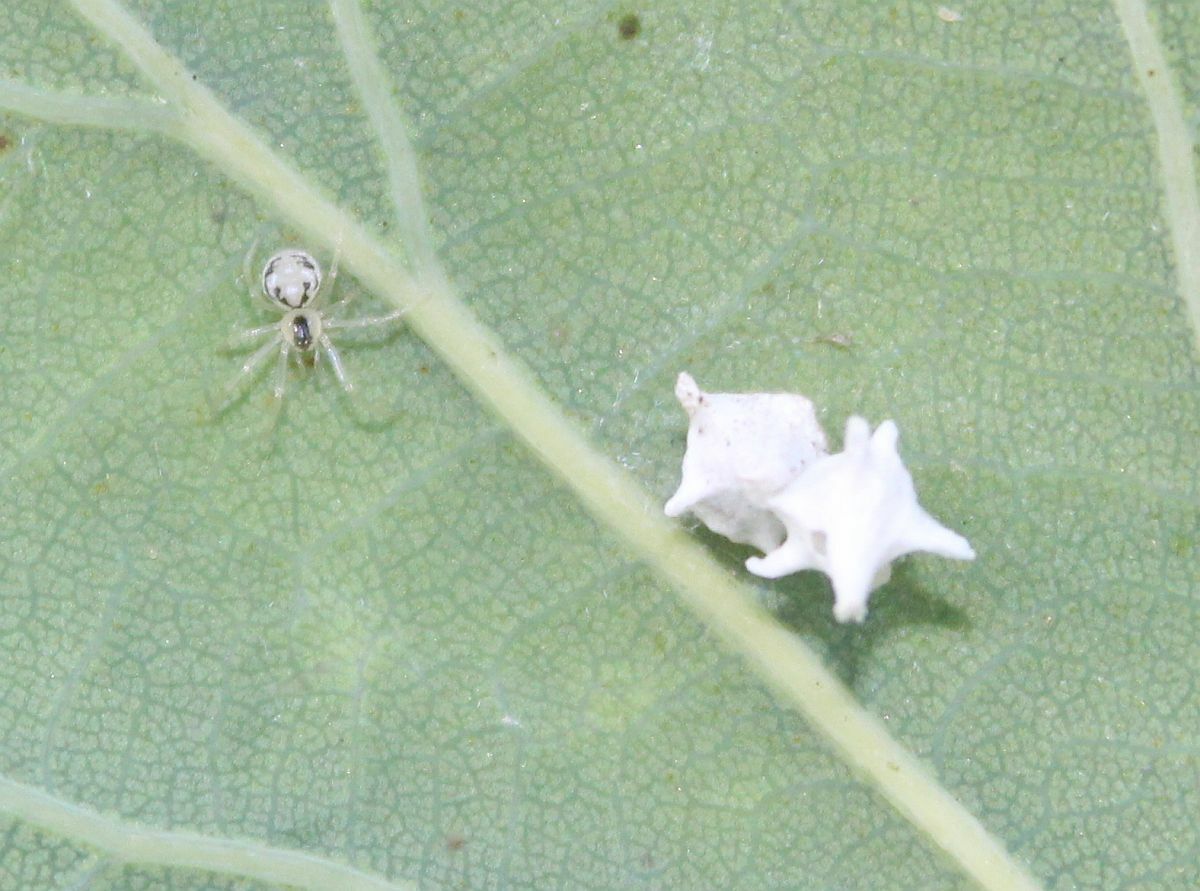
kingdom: Animalia
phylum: Arthropoda
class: Arachnida
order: Araneae
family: Theridiidae
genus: Paidiscura
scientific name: Paidiscura pallens
